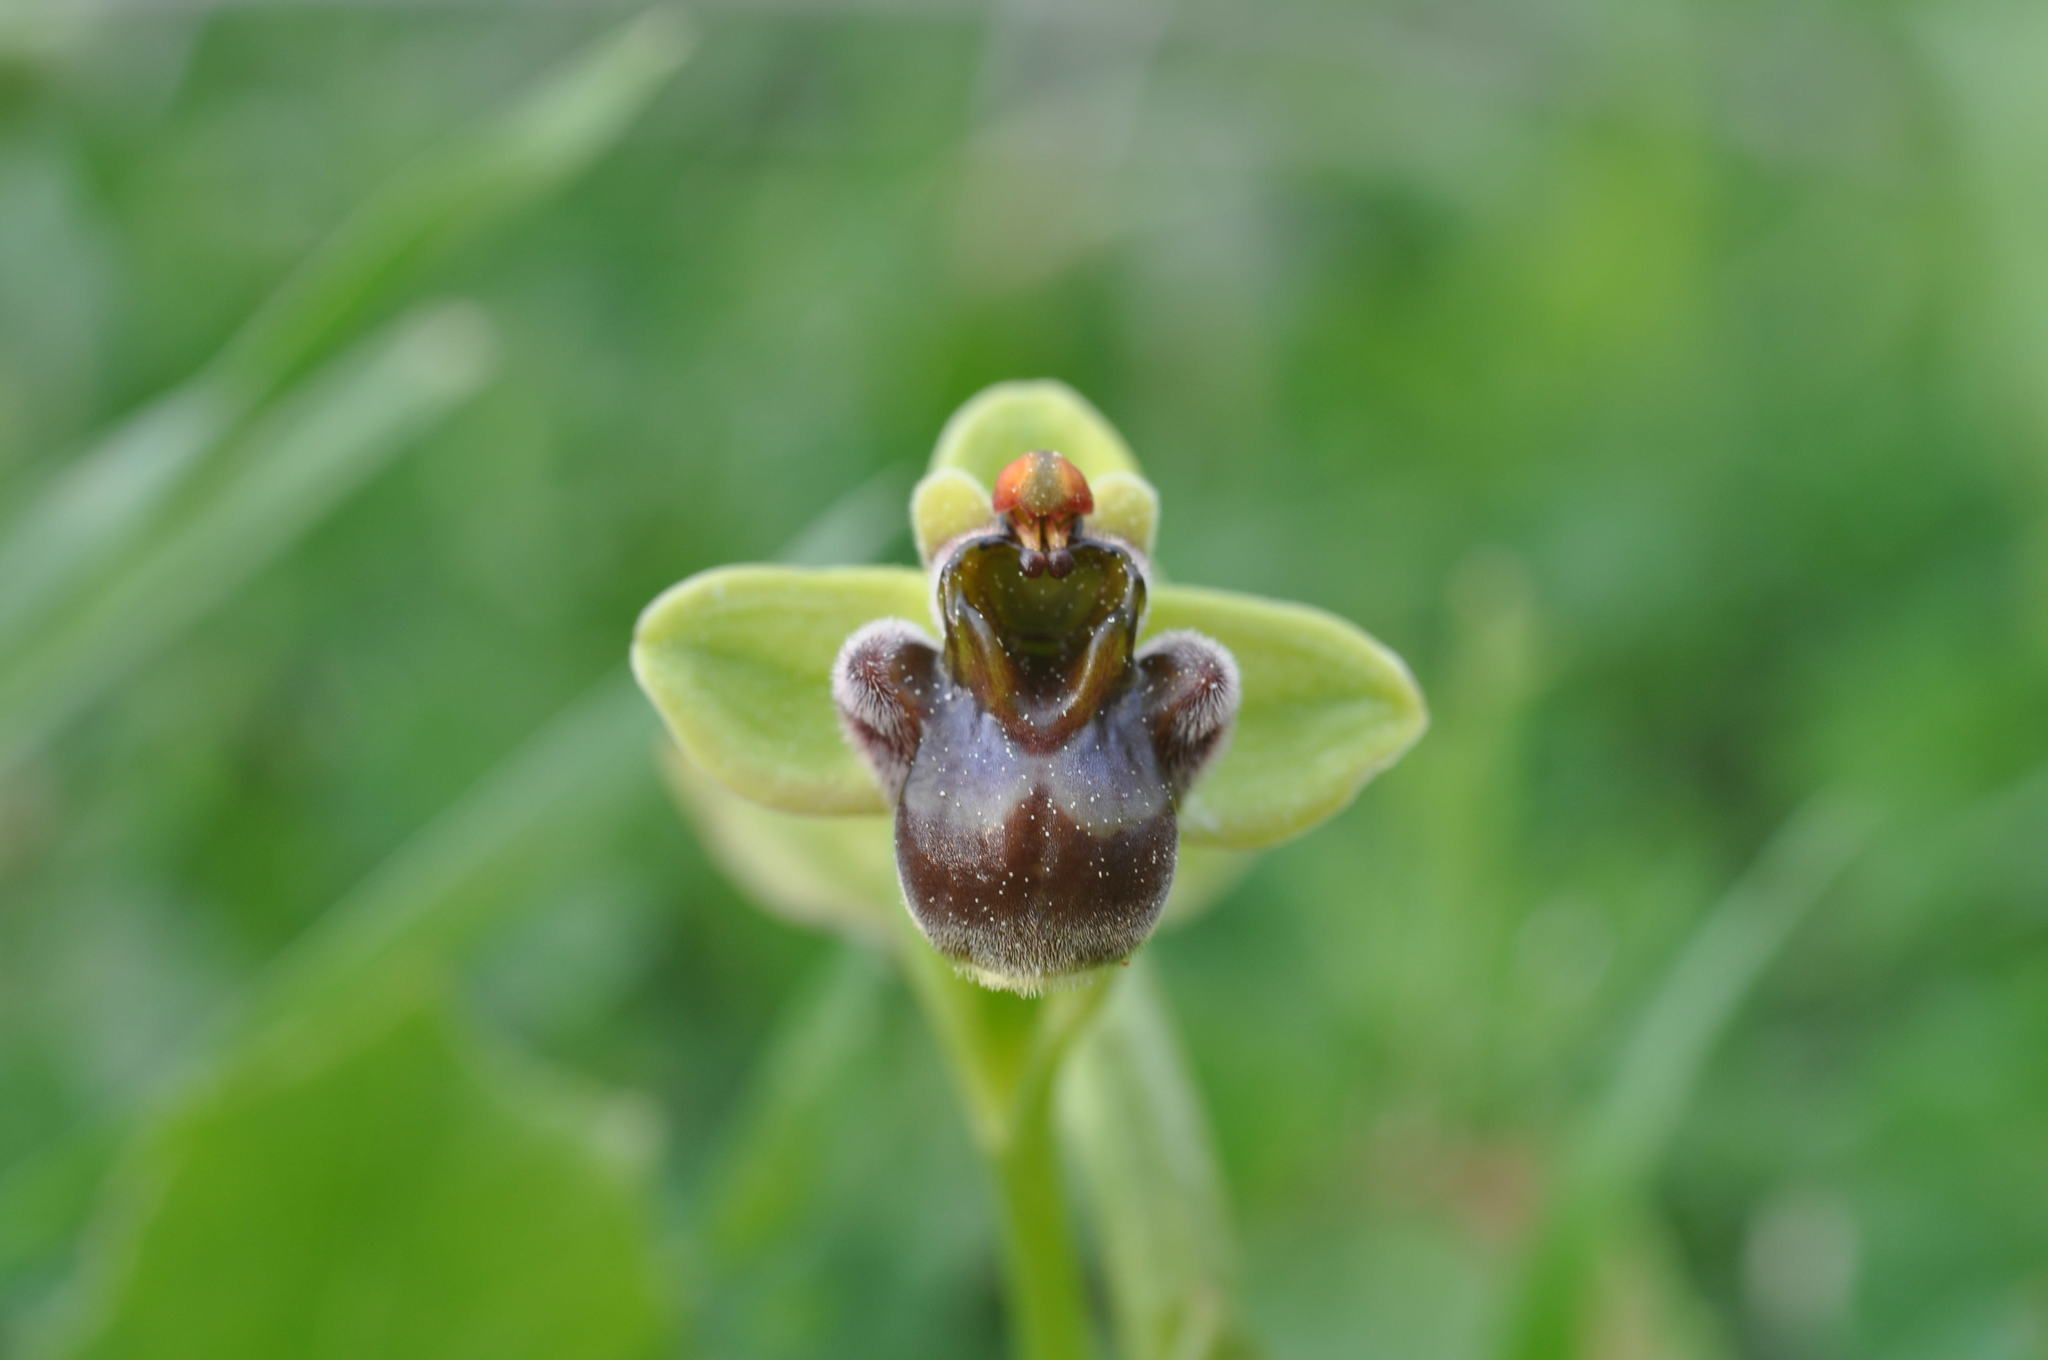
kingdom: Plantae
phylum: Tracheophyta
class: Liliopsida
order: Asparagales
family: Orchidaceae
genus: Ophrys
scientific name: Ophrys bombyliflora
